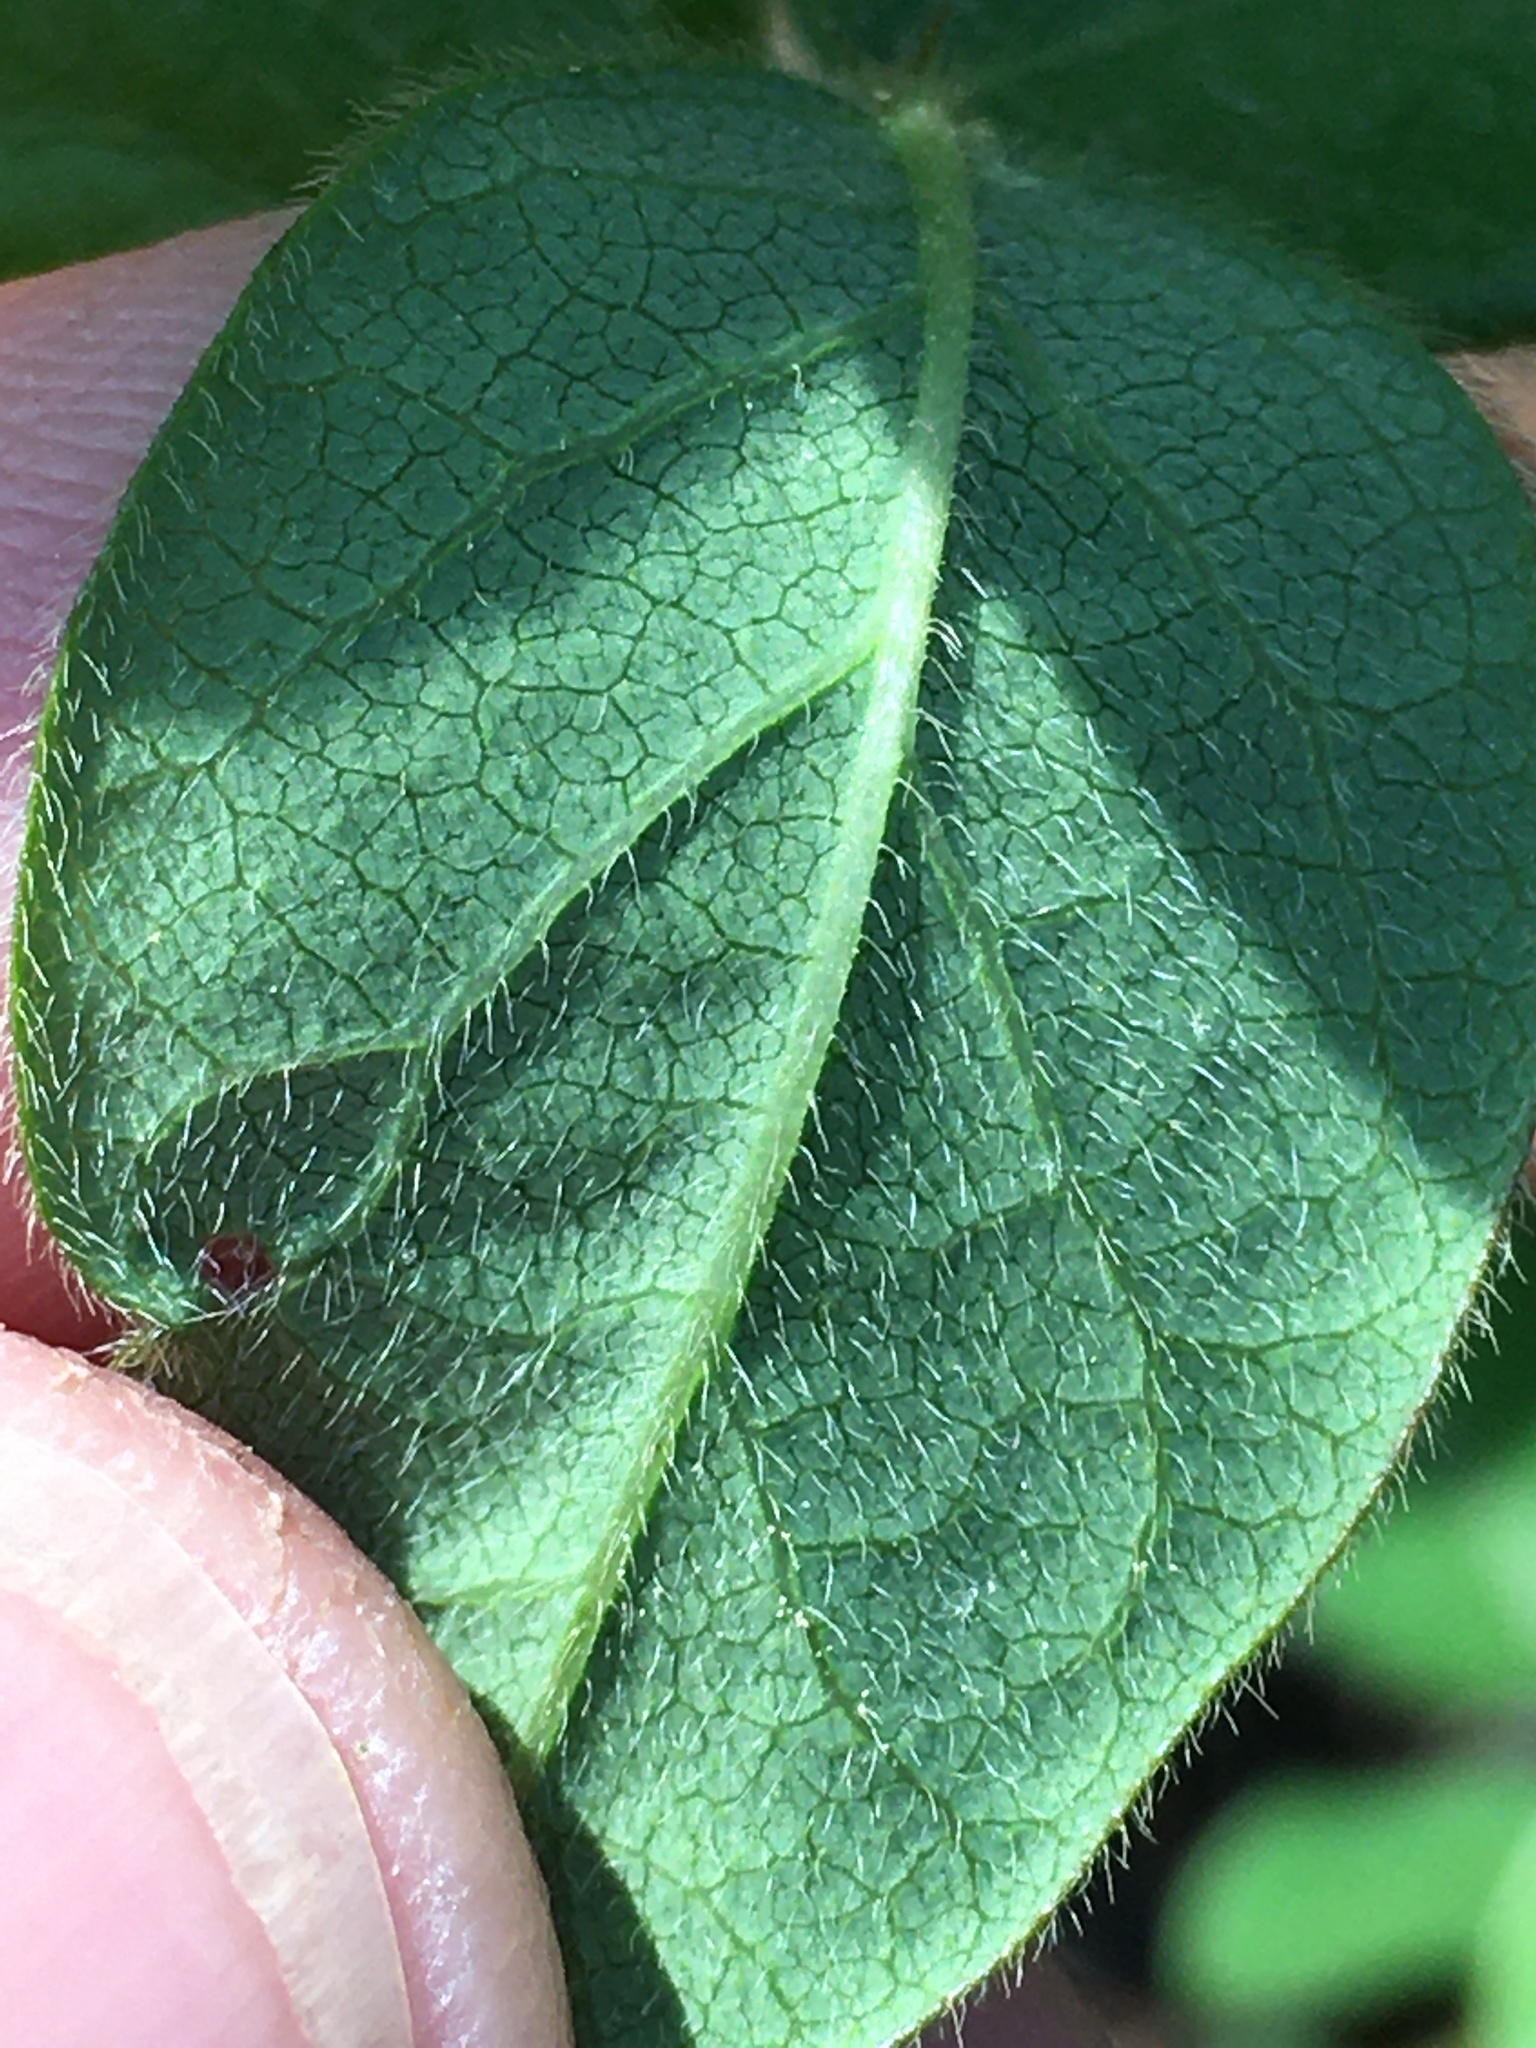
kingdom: Plantae
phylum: Tracheophyta
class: Magnoliopsida
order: Fabales
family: Fabaceae
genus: Desmodium
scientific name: Desmodium ciliare
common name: Hairy small-leaf ticktrefoil
